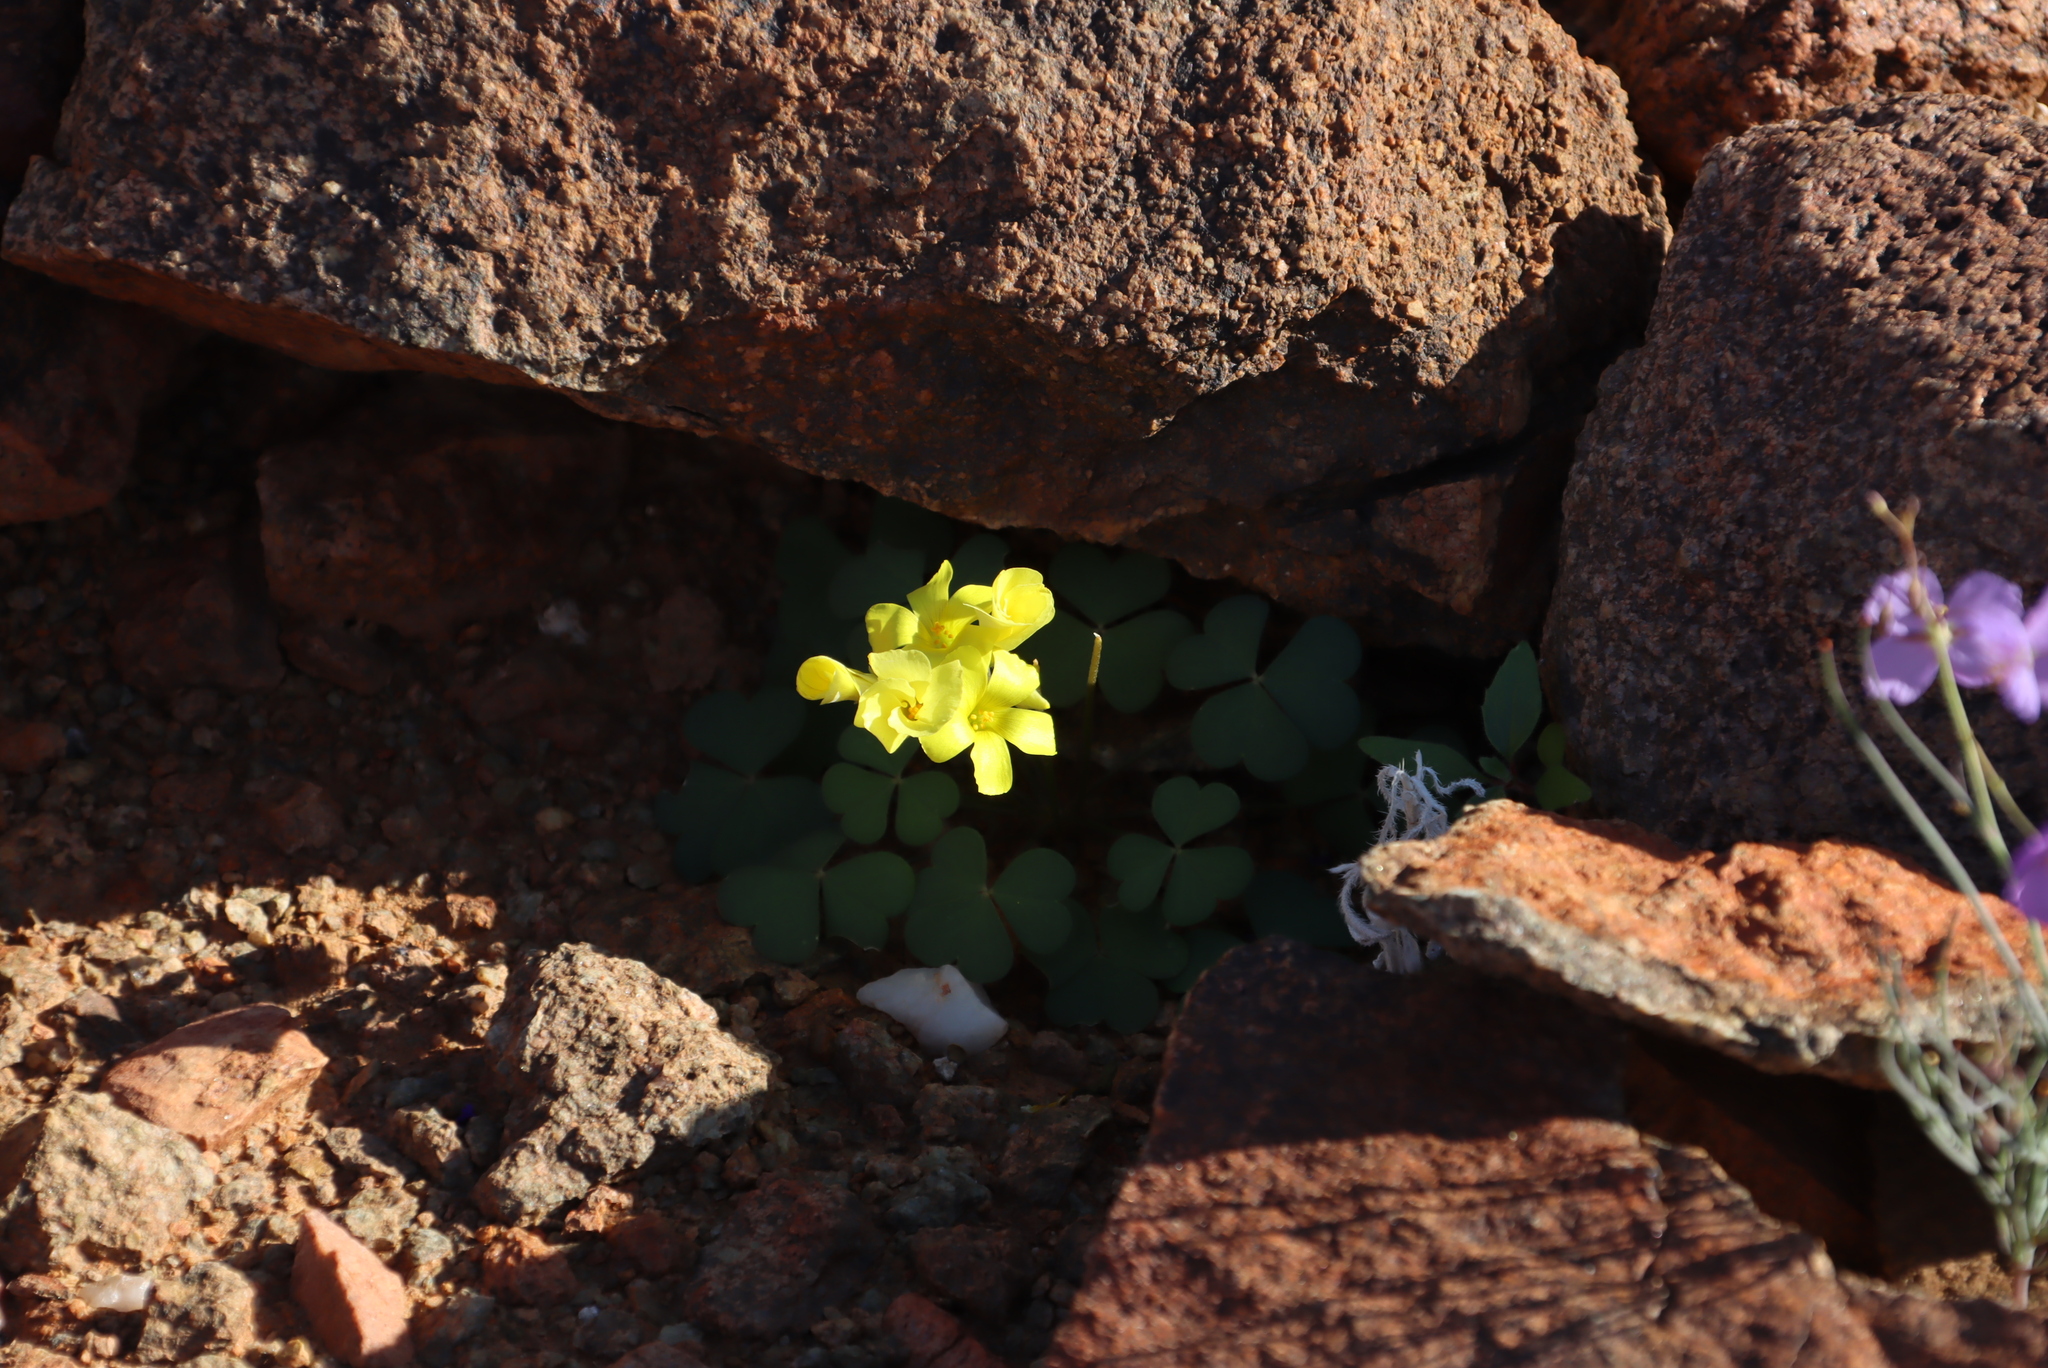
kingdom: Plantae
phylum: Tracheophyta
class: Magnoliopsida
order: Oxalidales
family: Oxalidaceae
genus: Oxalis
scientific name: Oxalis copiosa
